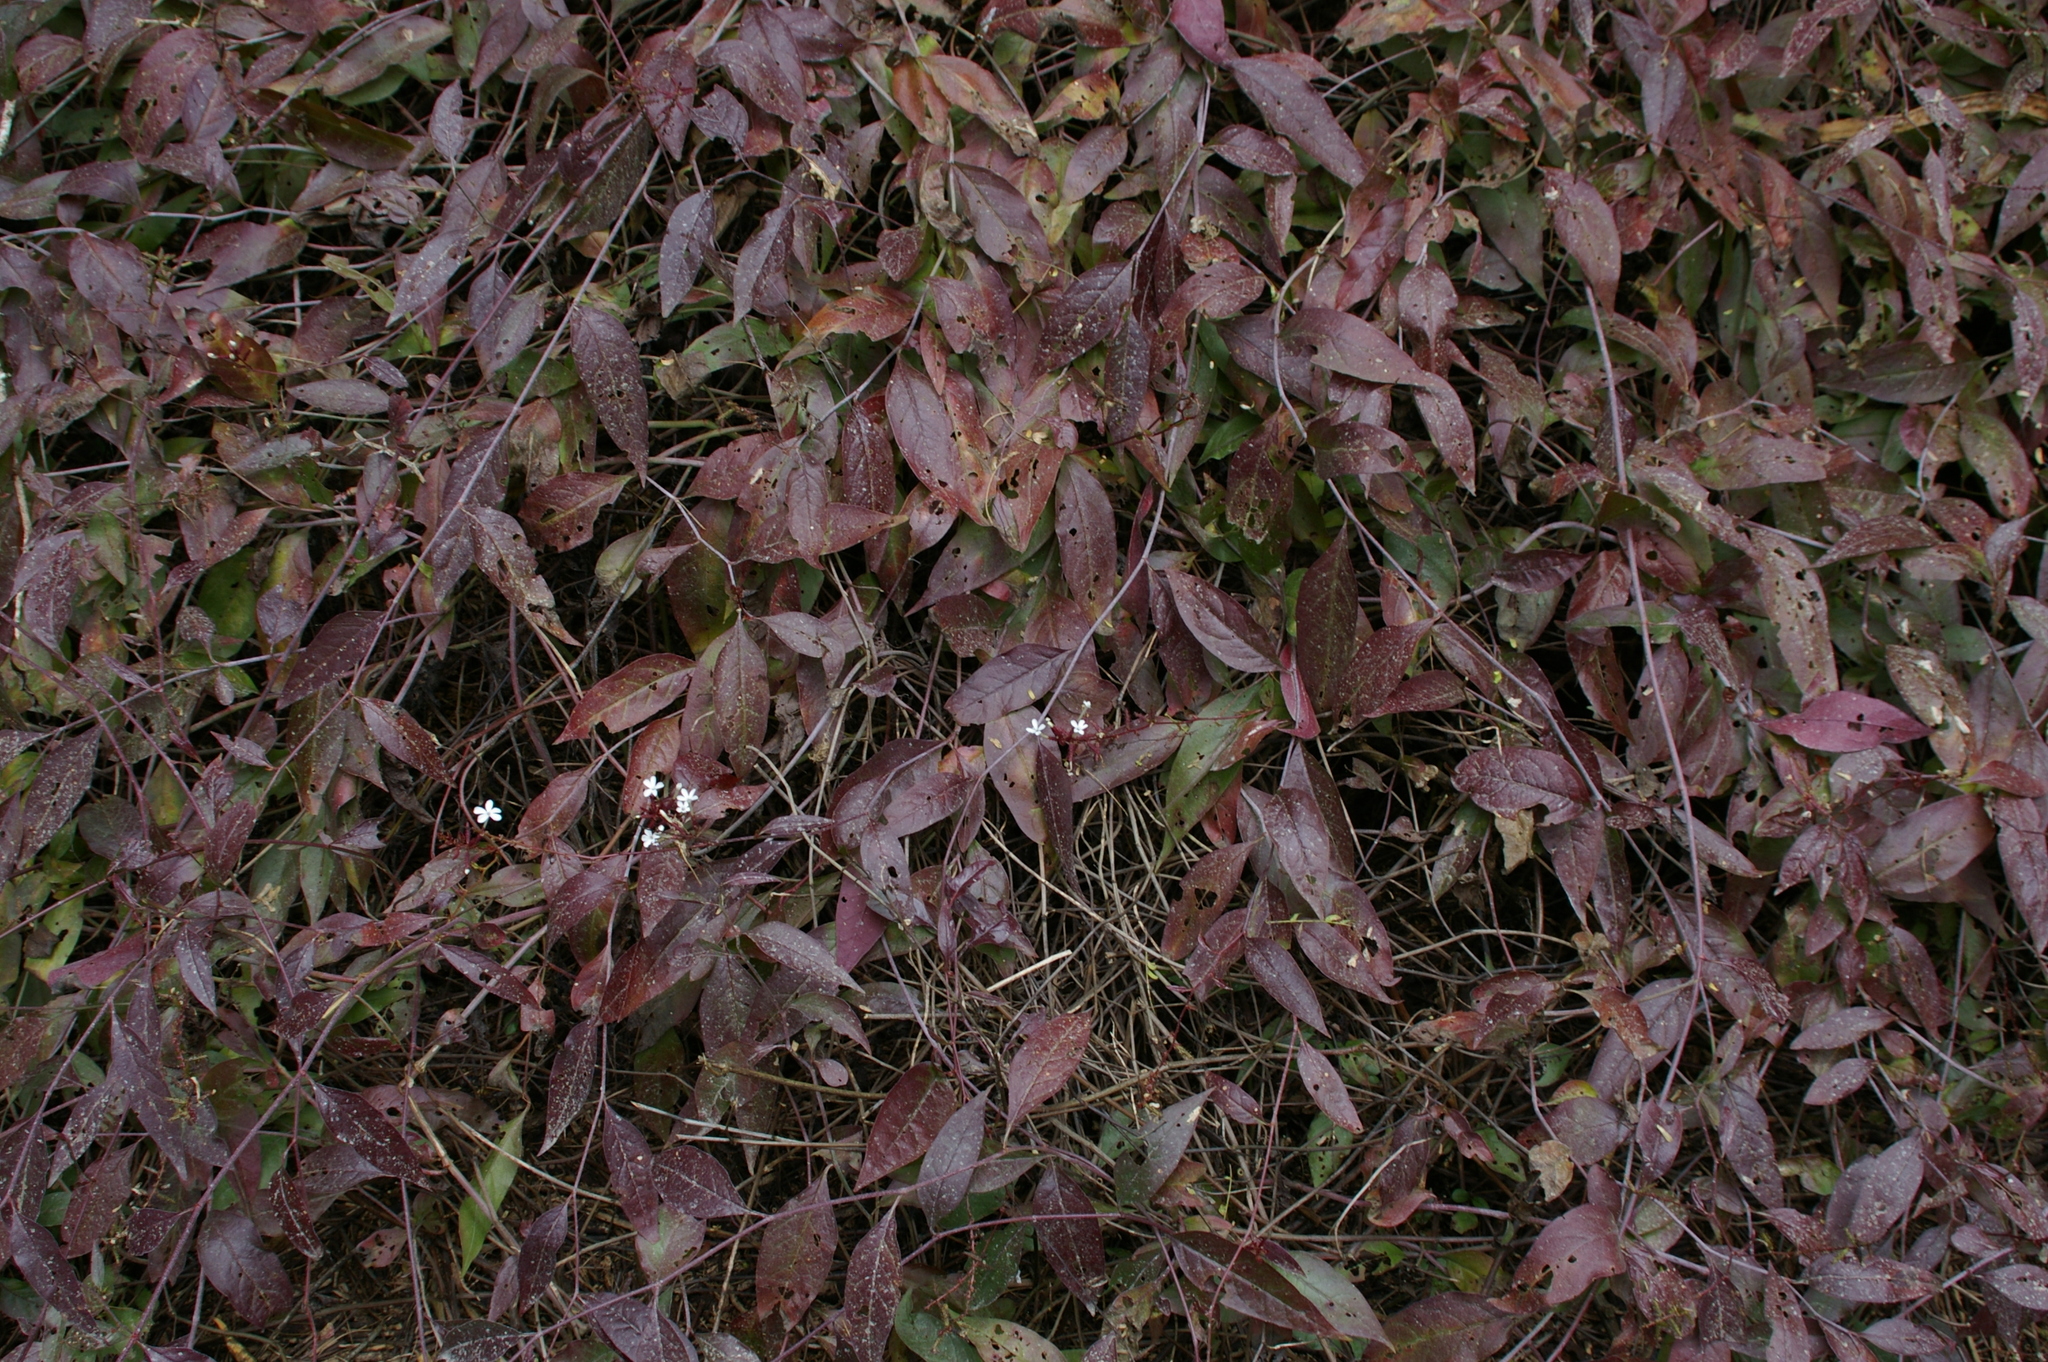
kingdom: Plantae
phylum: Tracheophyta
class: Magnoliopsida
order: Caryophyllales
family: Plumbaginaceae
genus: Plumbago
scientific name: Plumbago zeylanica
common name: Doctorbush
